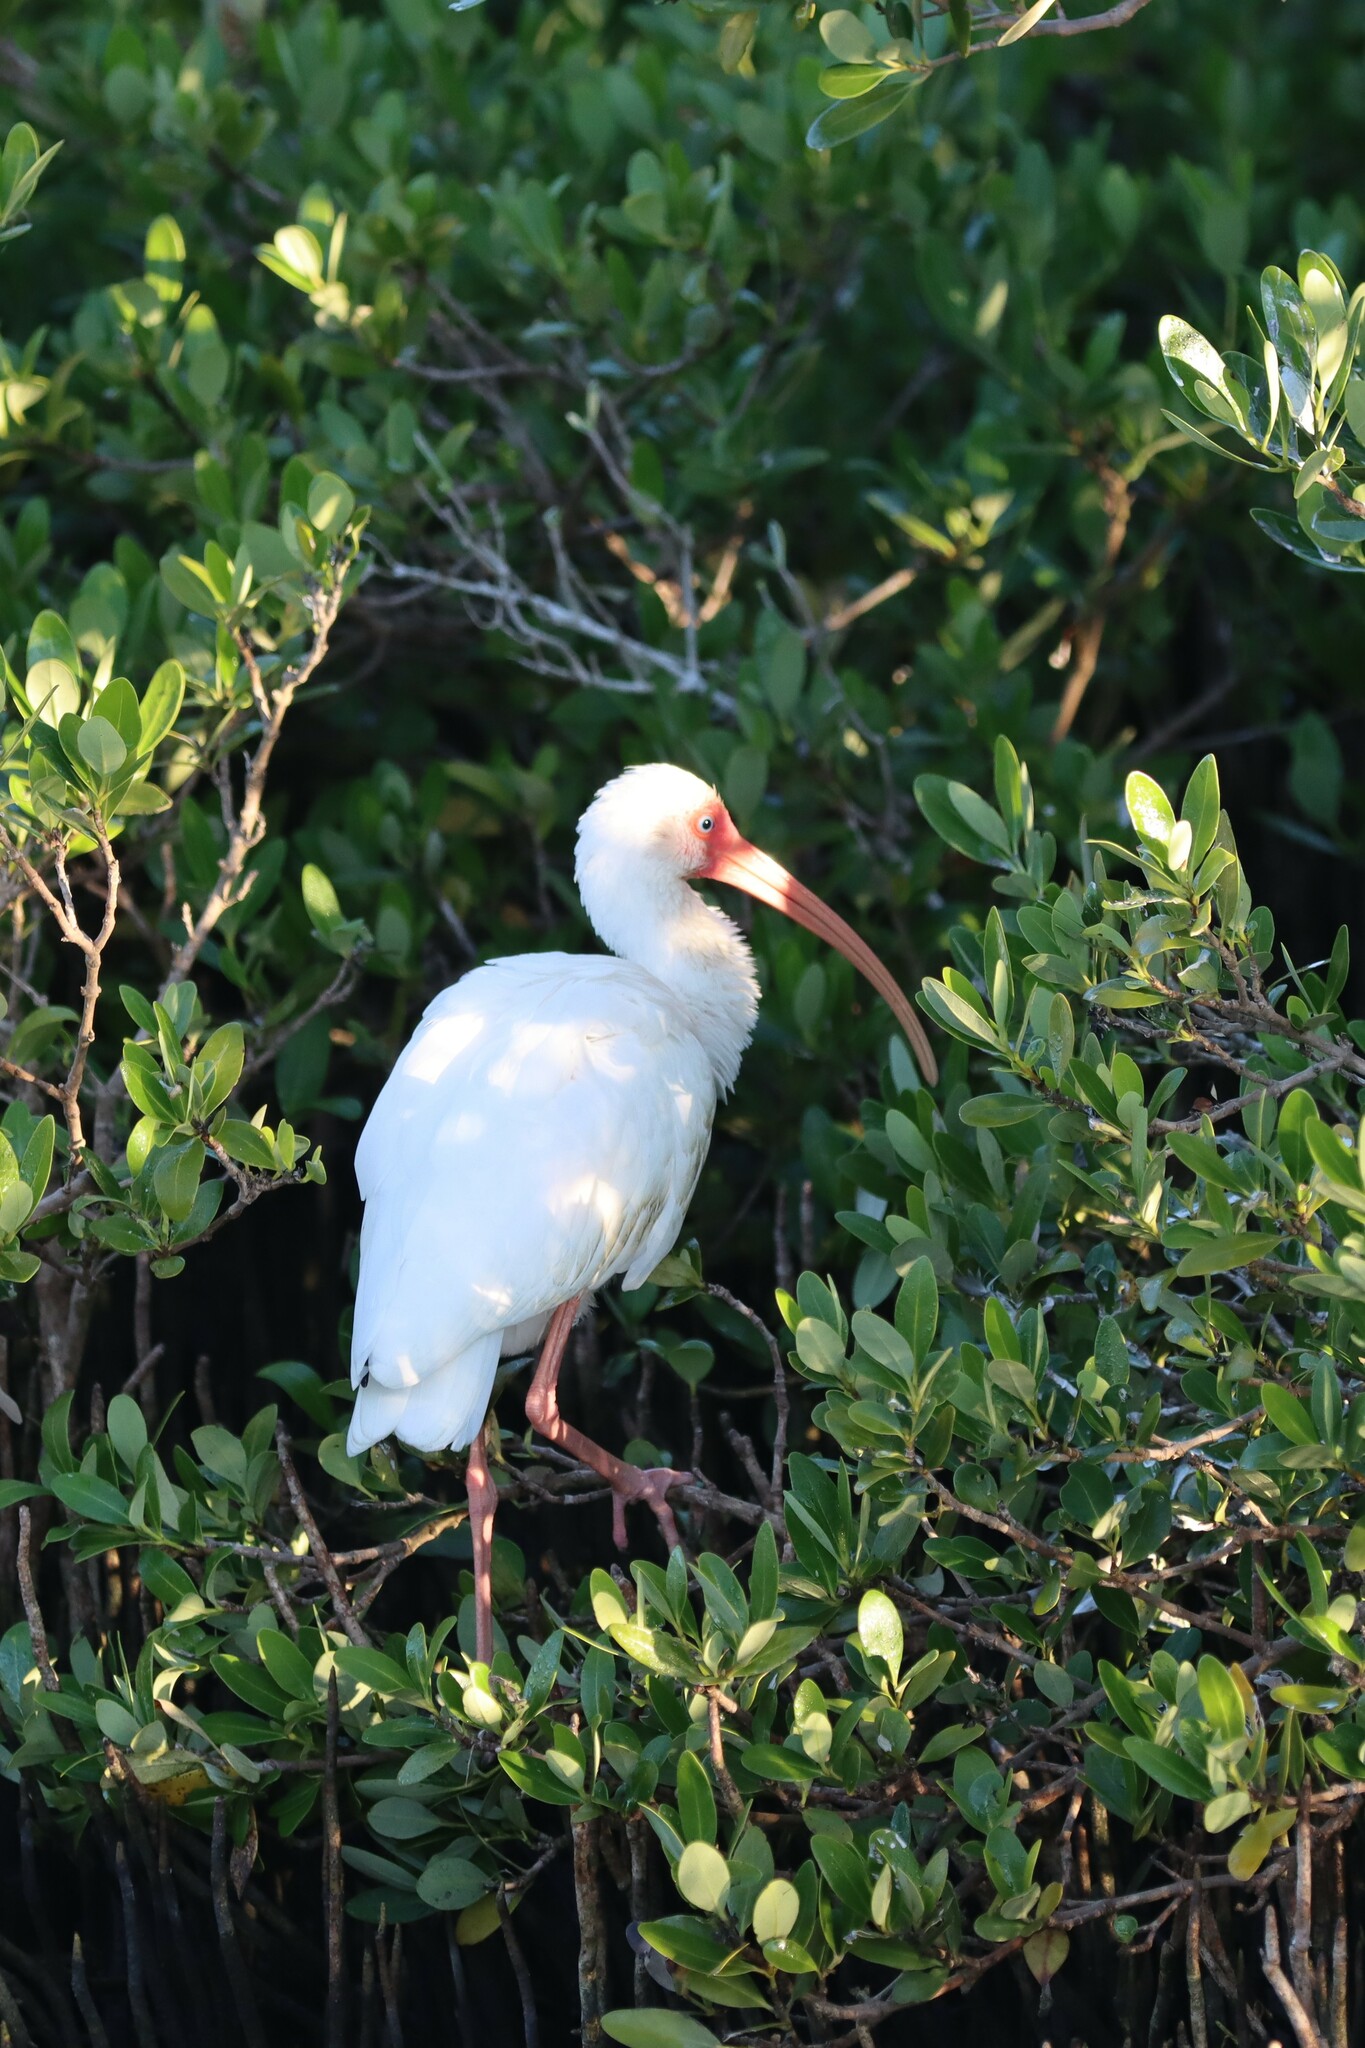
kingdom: Animalia
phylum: Chordata
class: Aves
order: Pelecaniformes
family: Threskiornithidae
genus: Eudocimus
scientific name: Eudocimus albus
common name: White ibis
